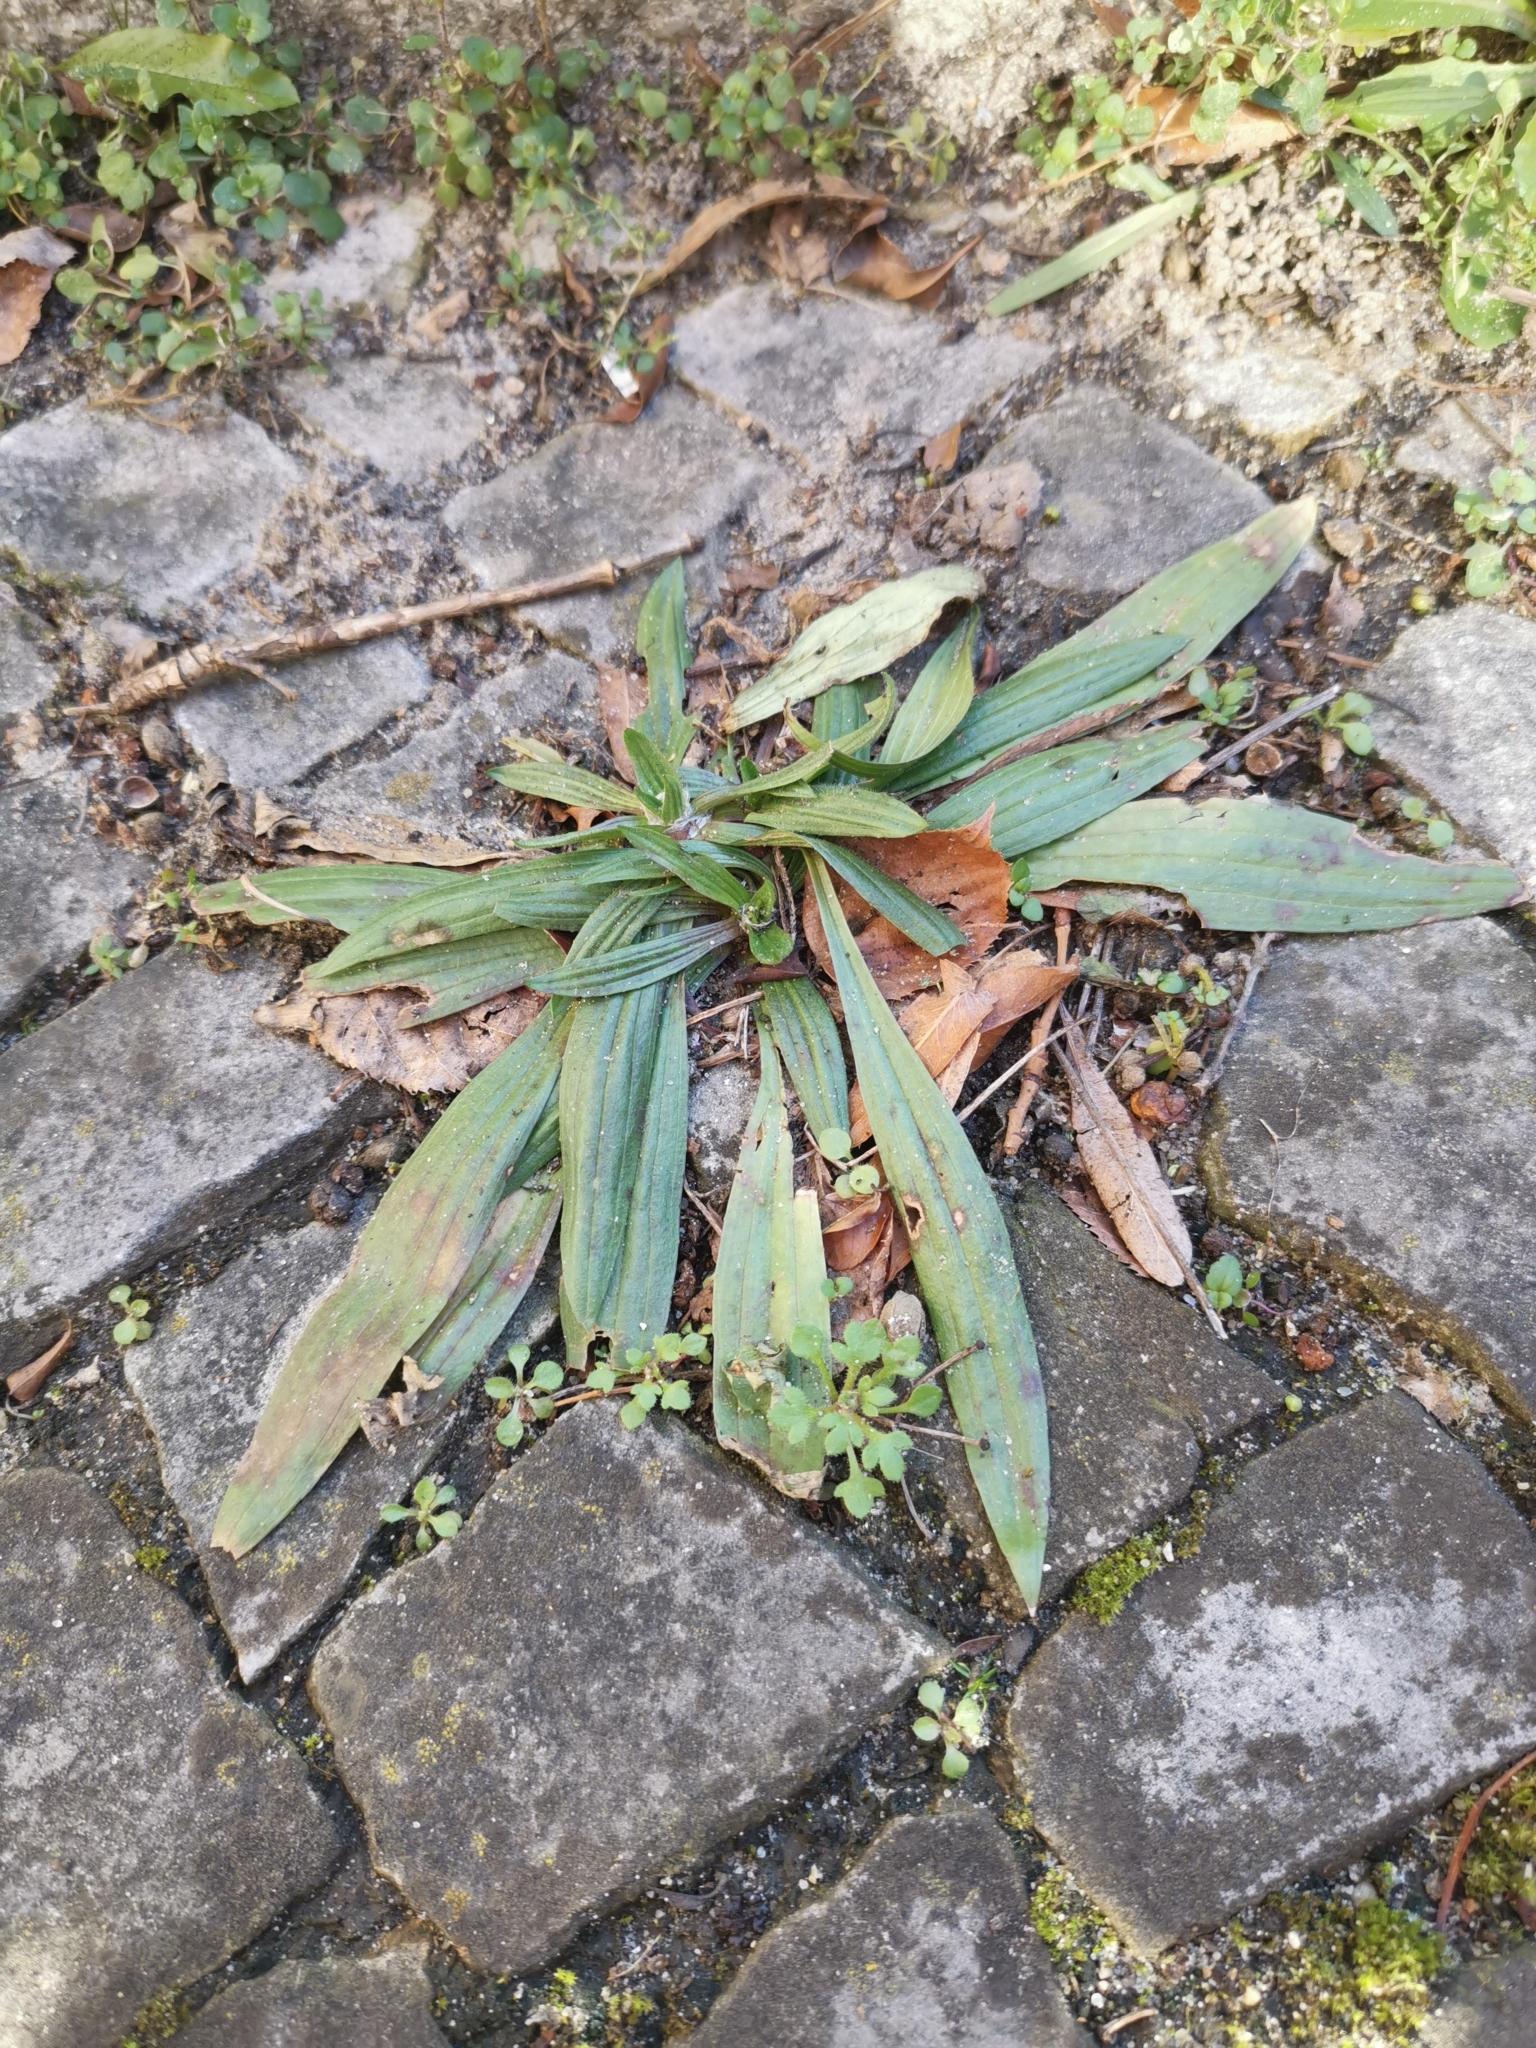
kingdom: Plantae
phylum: Tracheophyta
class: Magnoliopsida
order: Lamiales
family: Plantaginaceae
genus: Plantago
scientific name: Plantago lanceolata
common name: Ribwort plantain
